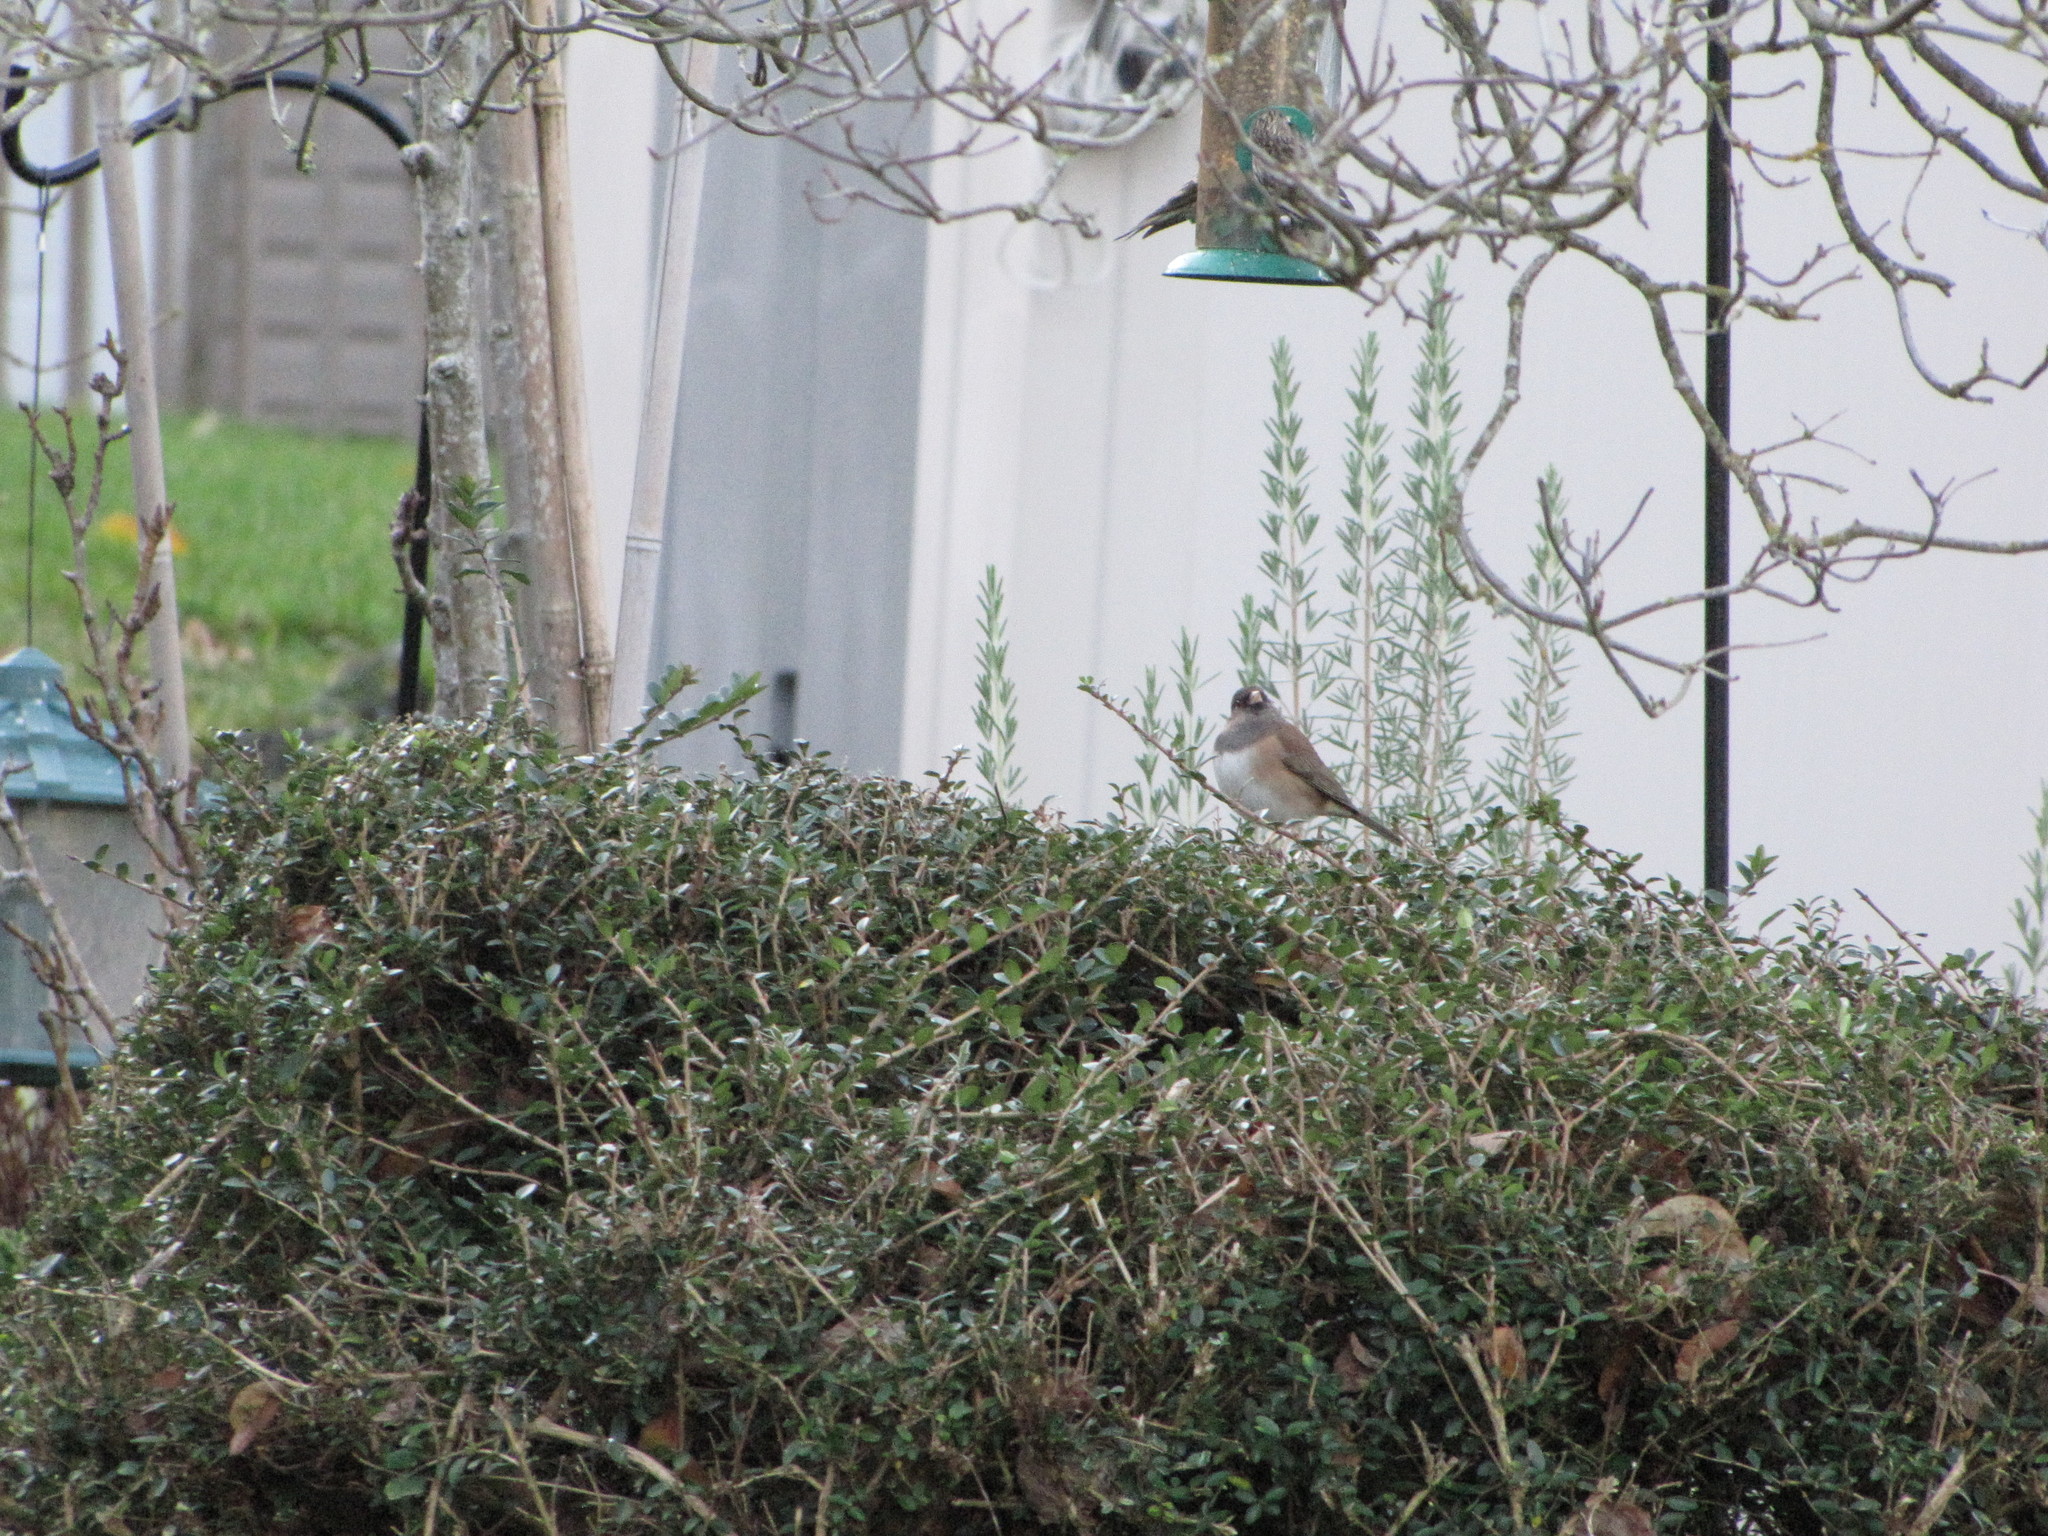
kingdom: Animalia
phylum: Chordata
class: Aves
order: Passeriformes
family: Passerellidae
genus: Junco
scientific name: Junco hyemalis
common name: Dark-eyed junco
